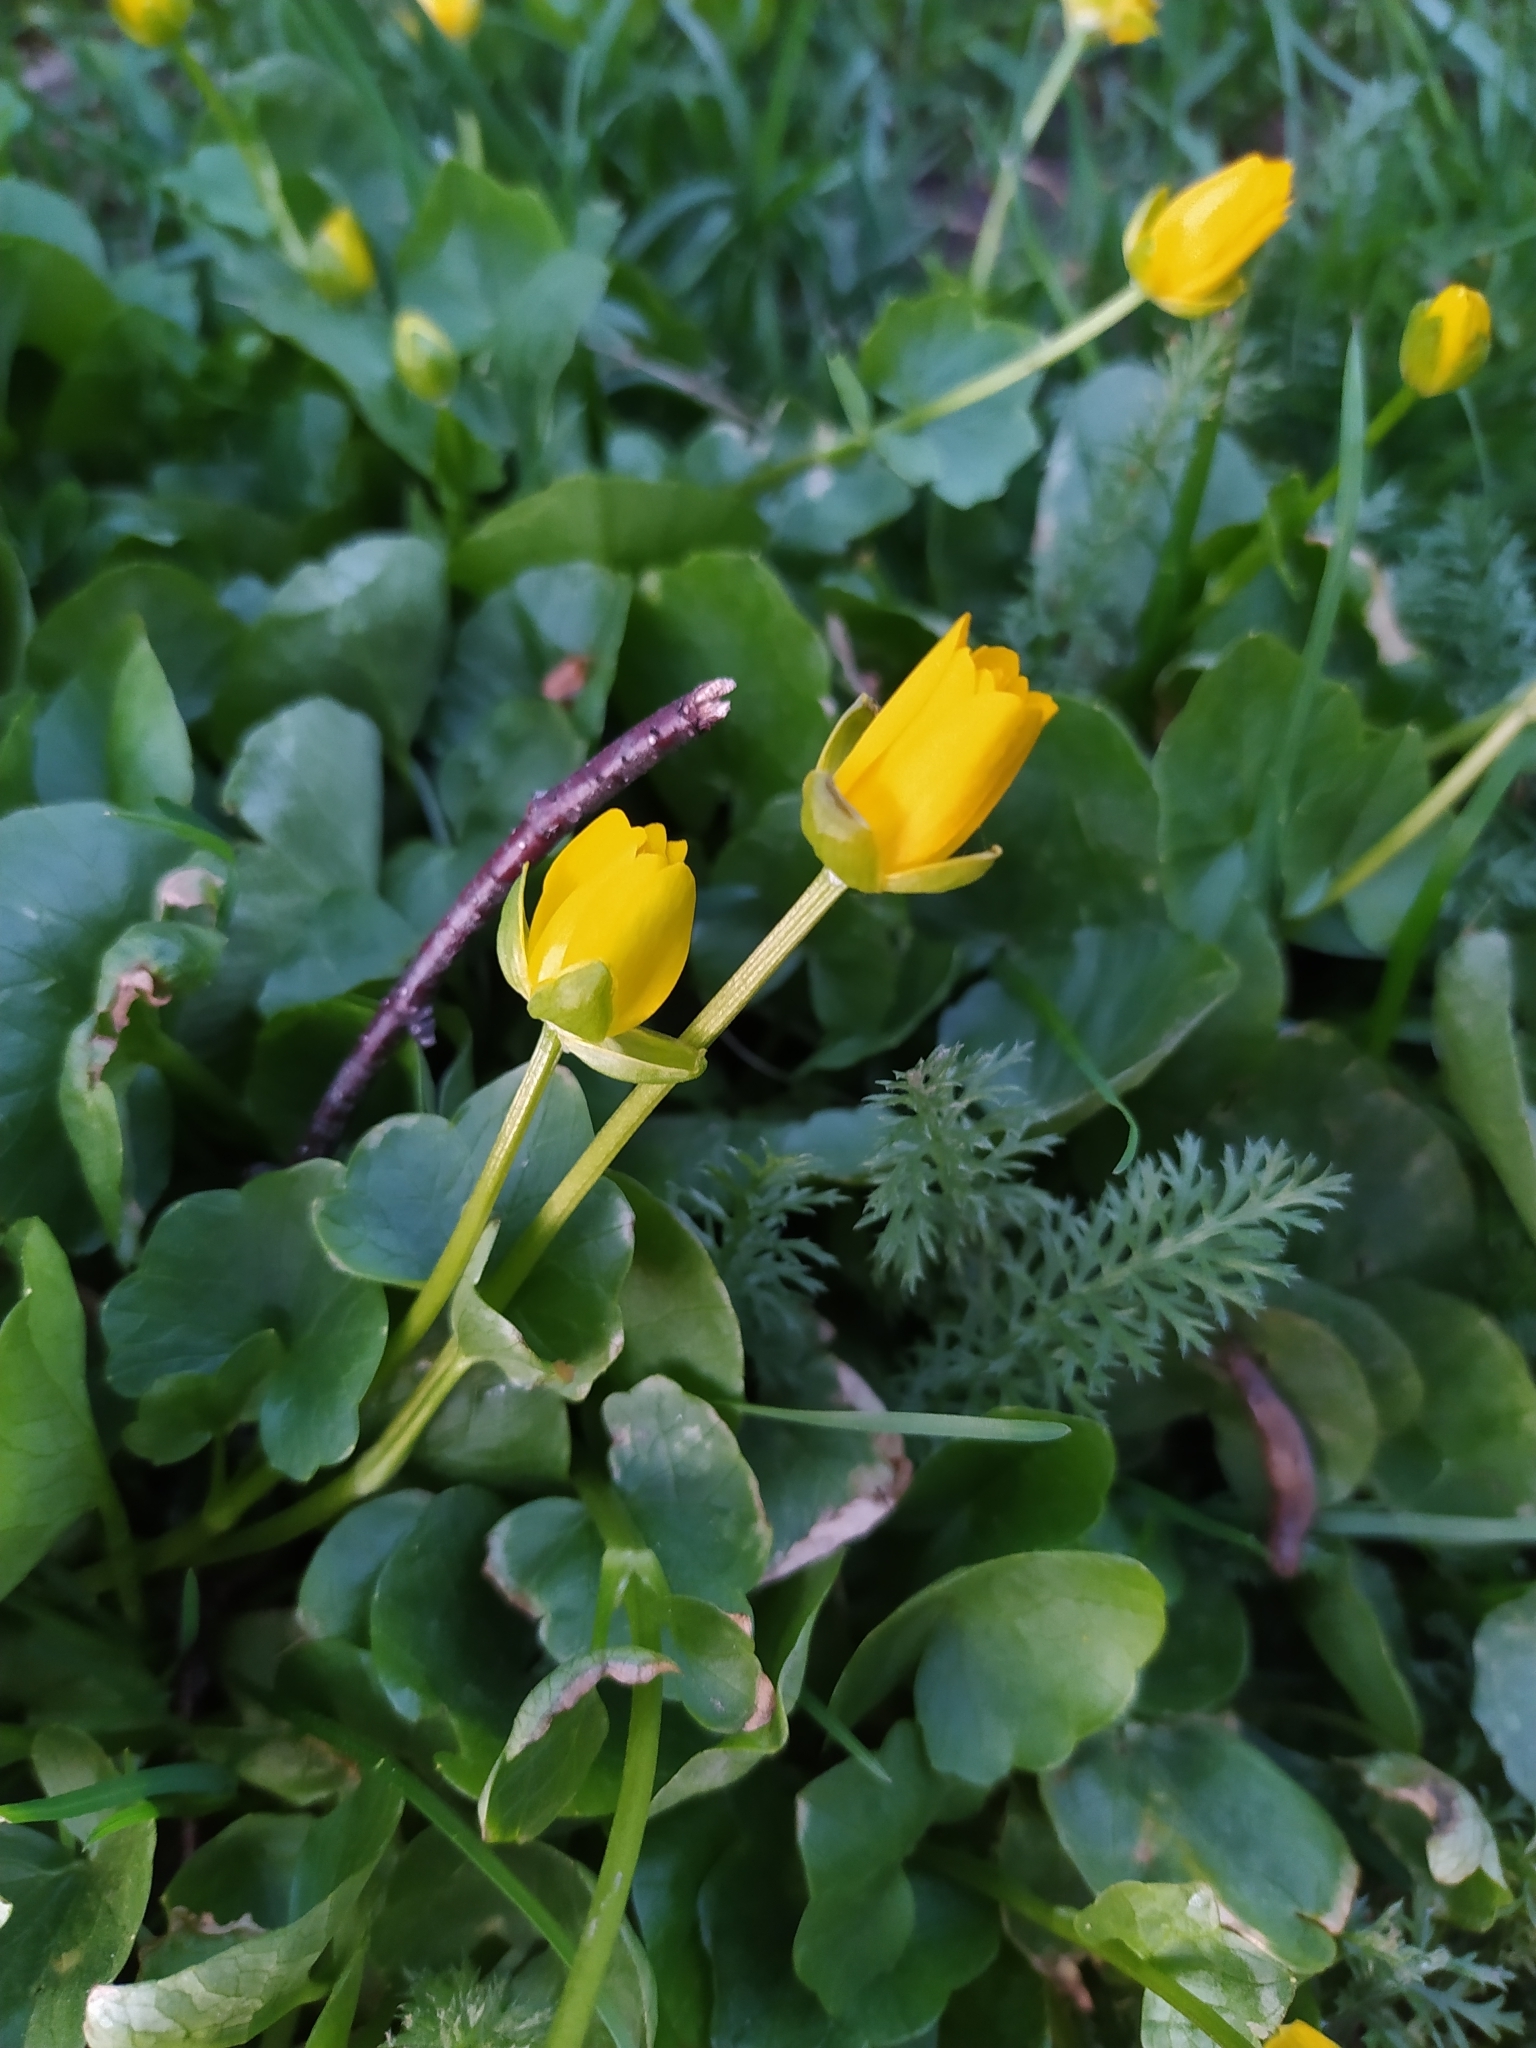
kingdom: Plantae
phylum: Tracheophyta
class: Magnoliopsida
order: Ranunculales
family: Ranunculaceae
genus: Ficaria
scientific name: Ficaria verna
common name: Lesser celandine
